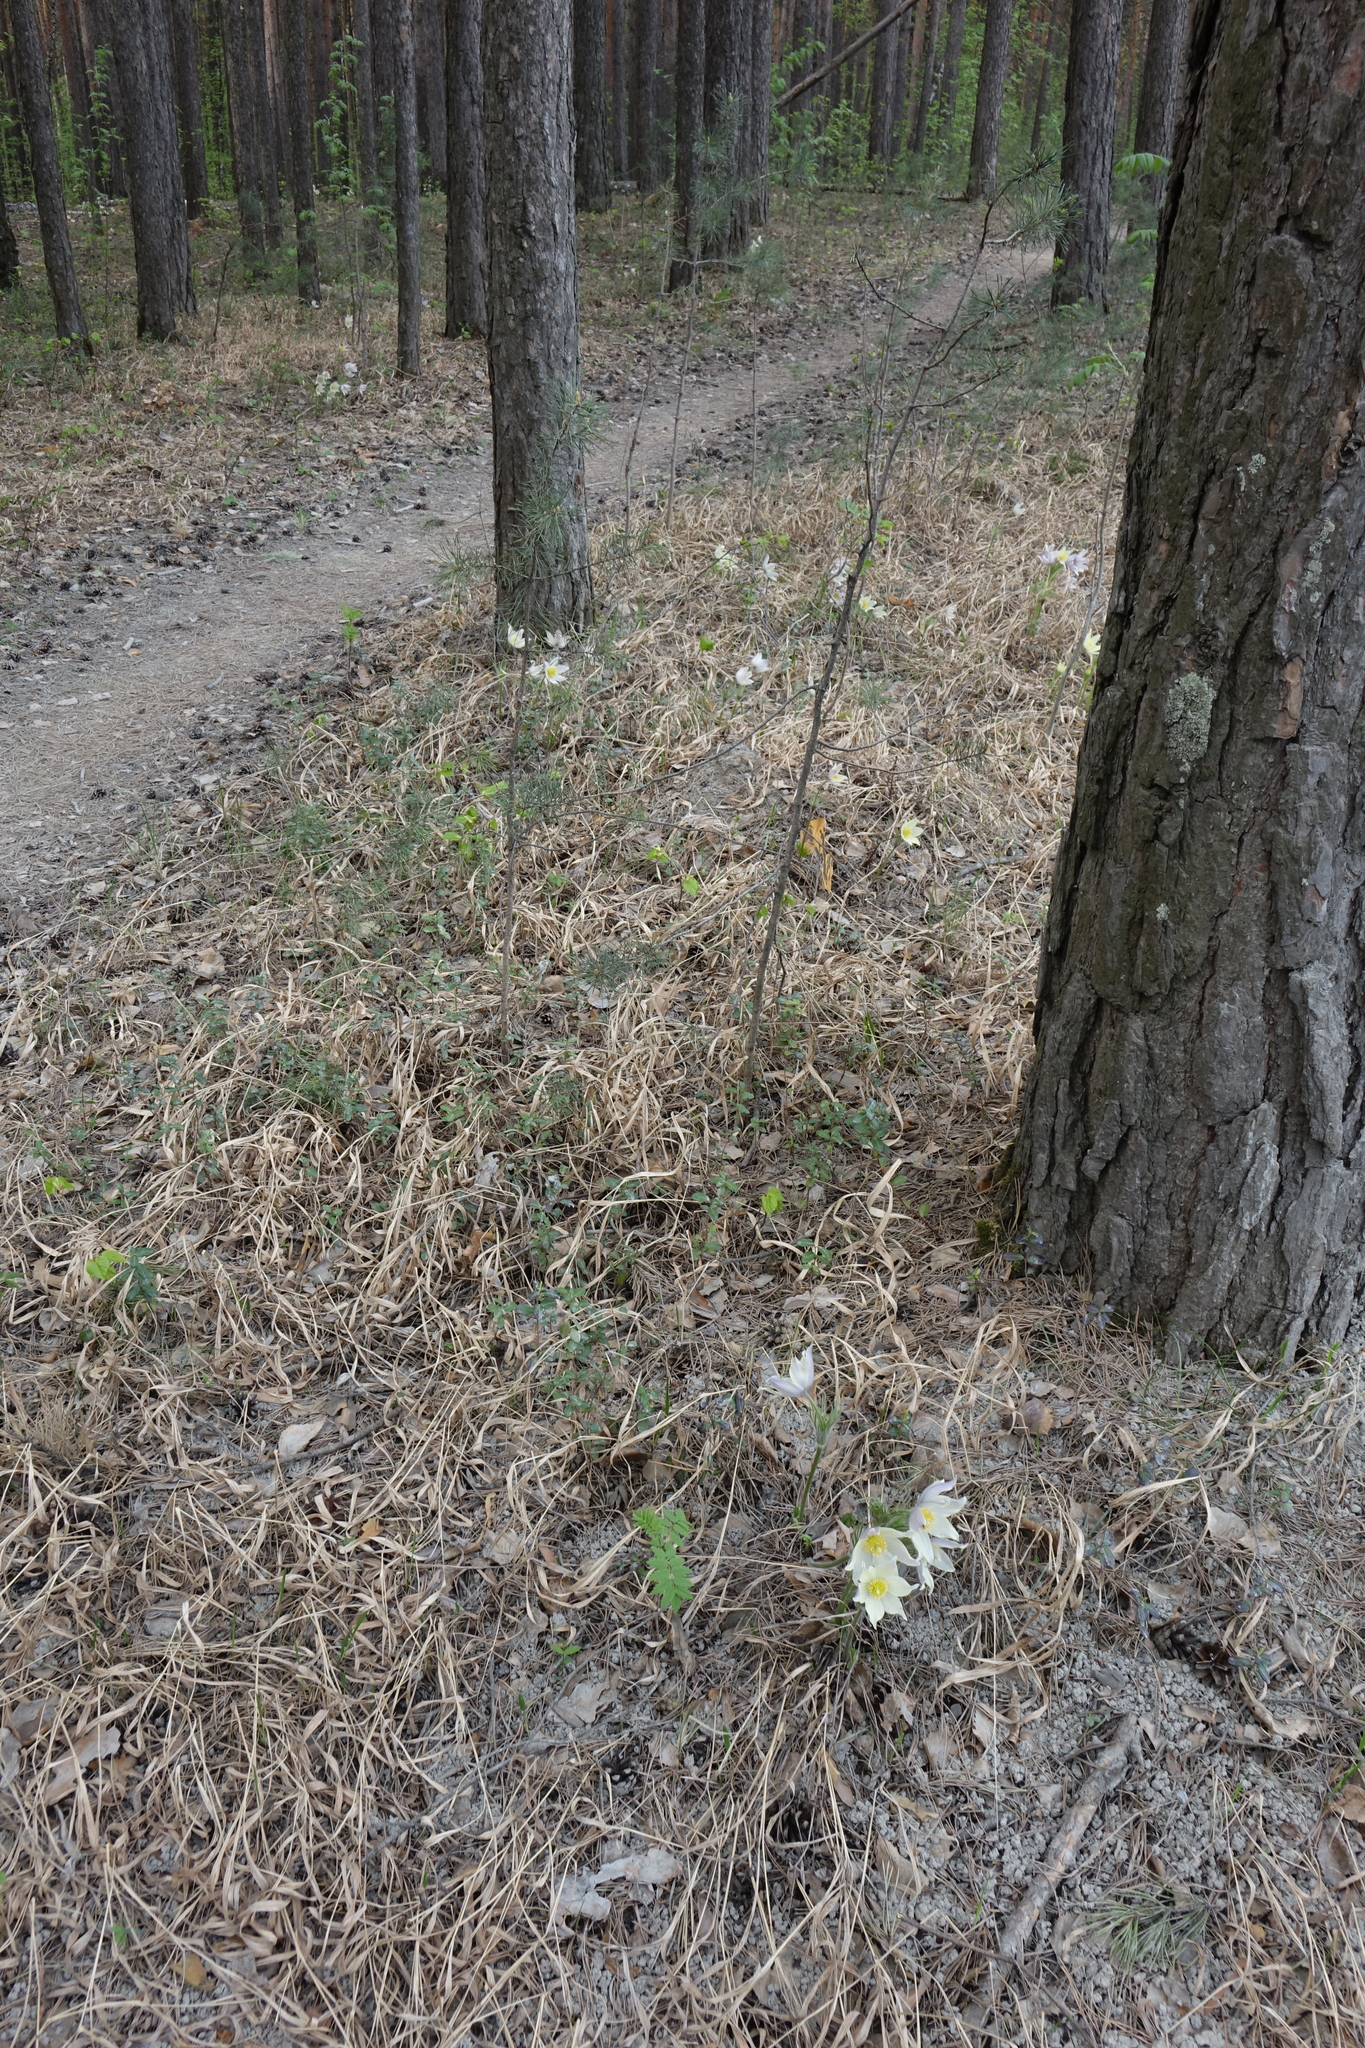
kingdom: Plantae
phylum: Tracheophyta
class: Magnoliopsida
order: Ranunculales
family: Ranunculaceae
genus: Pulsatilla
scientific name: Pulsatilla patens
